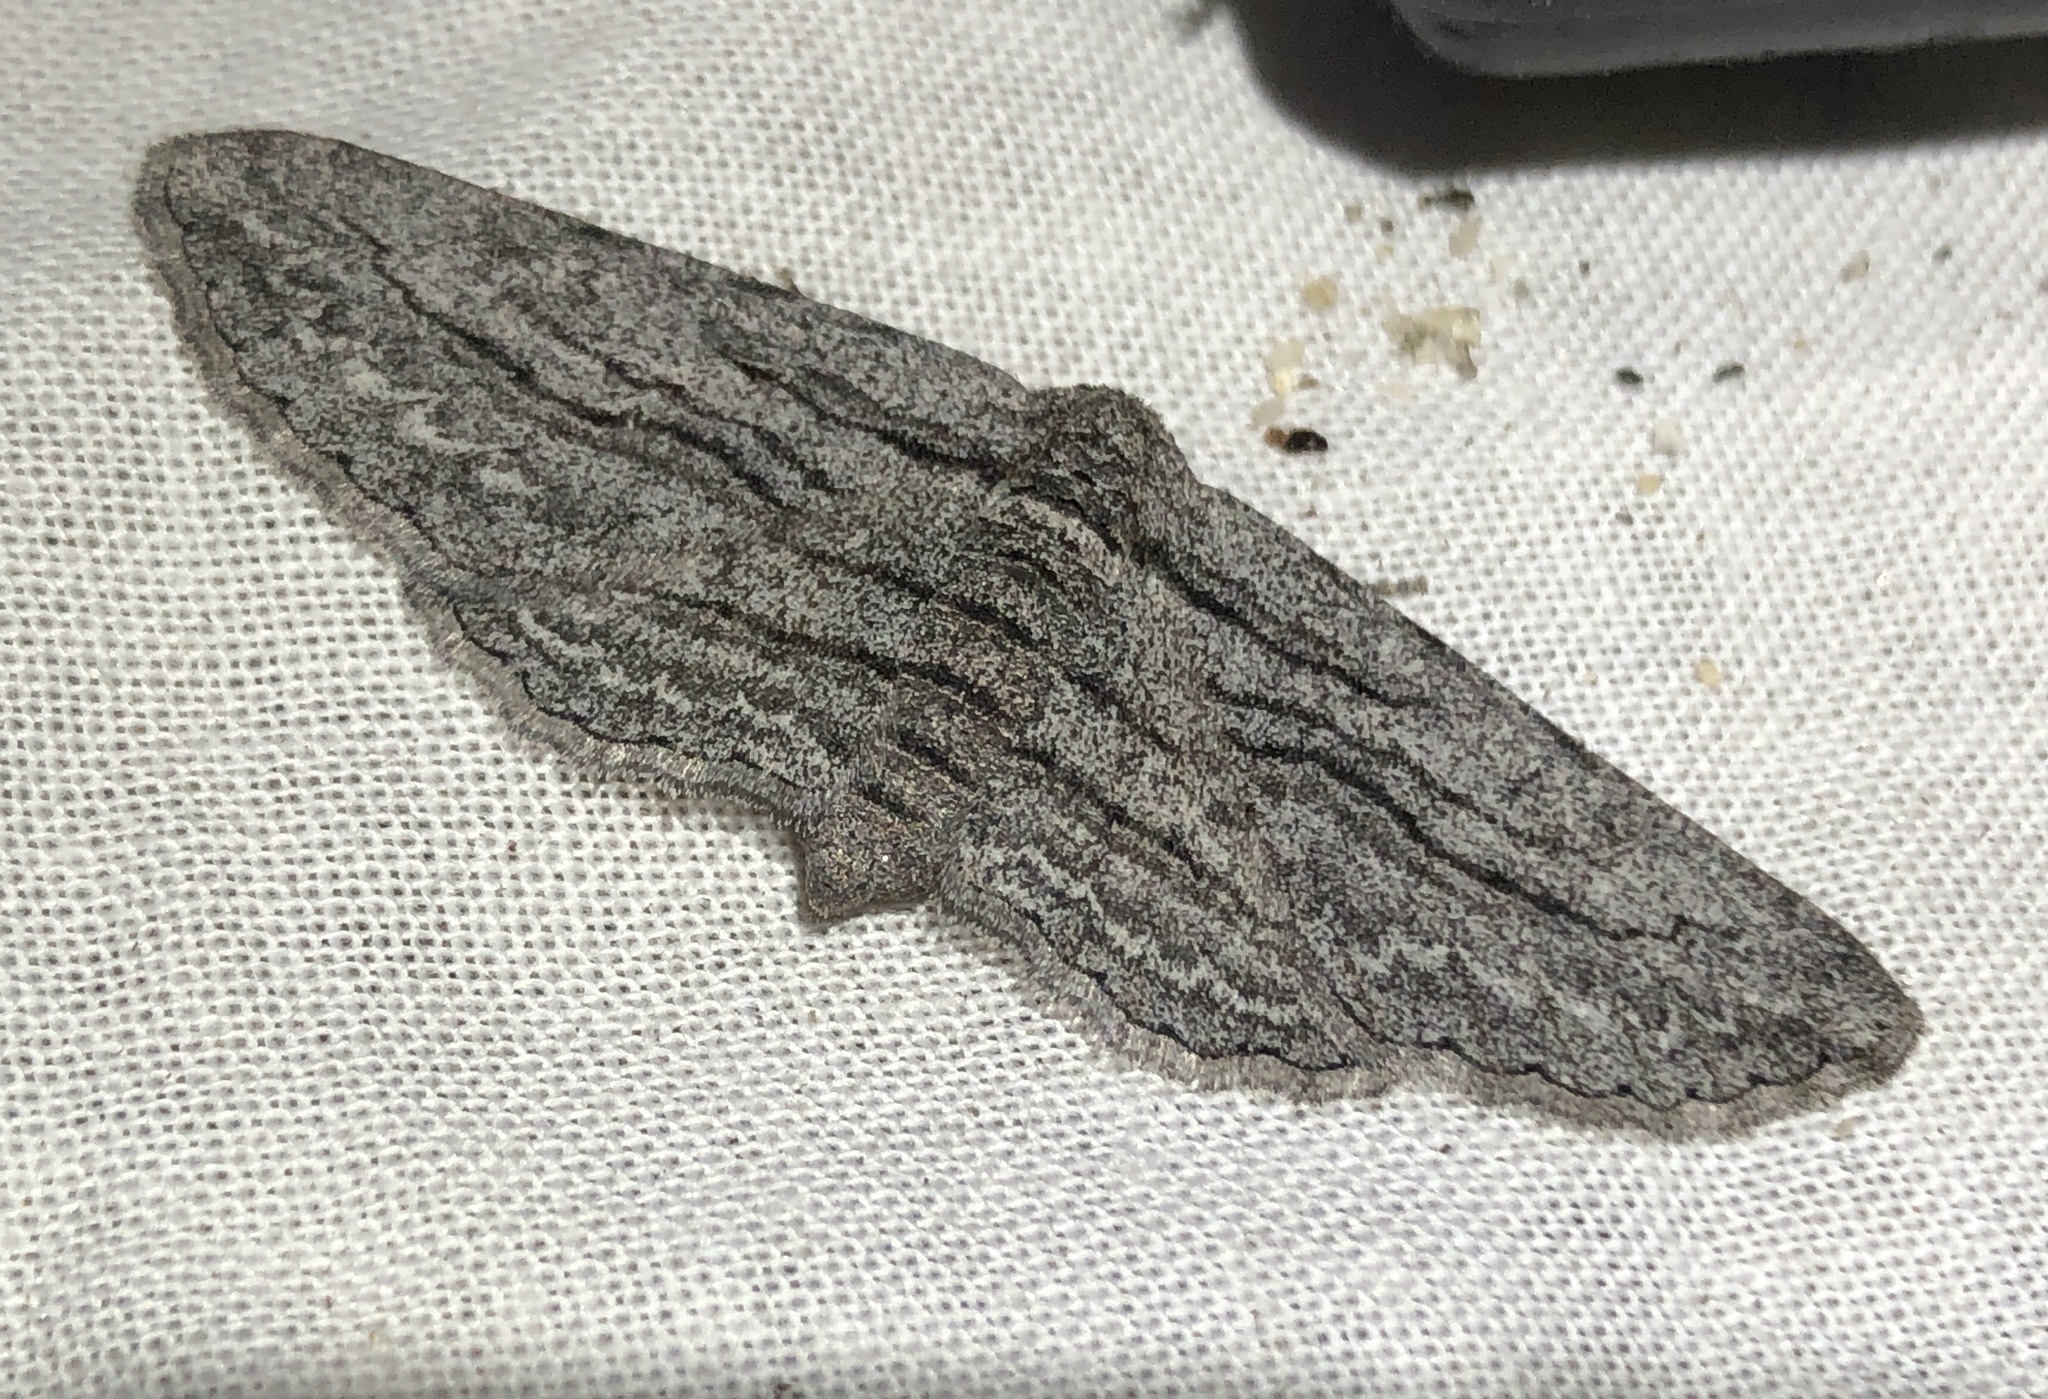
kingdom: Animalia
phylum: Arthropoda
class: Insecta
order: Lepidoptera
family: Geometridae
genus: Glena
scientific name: Glena quinquelinearia
